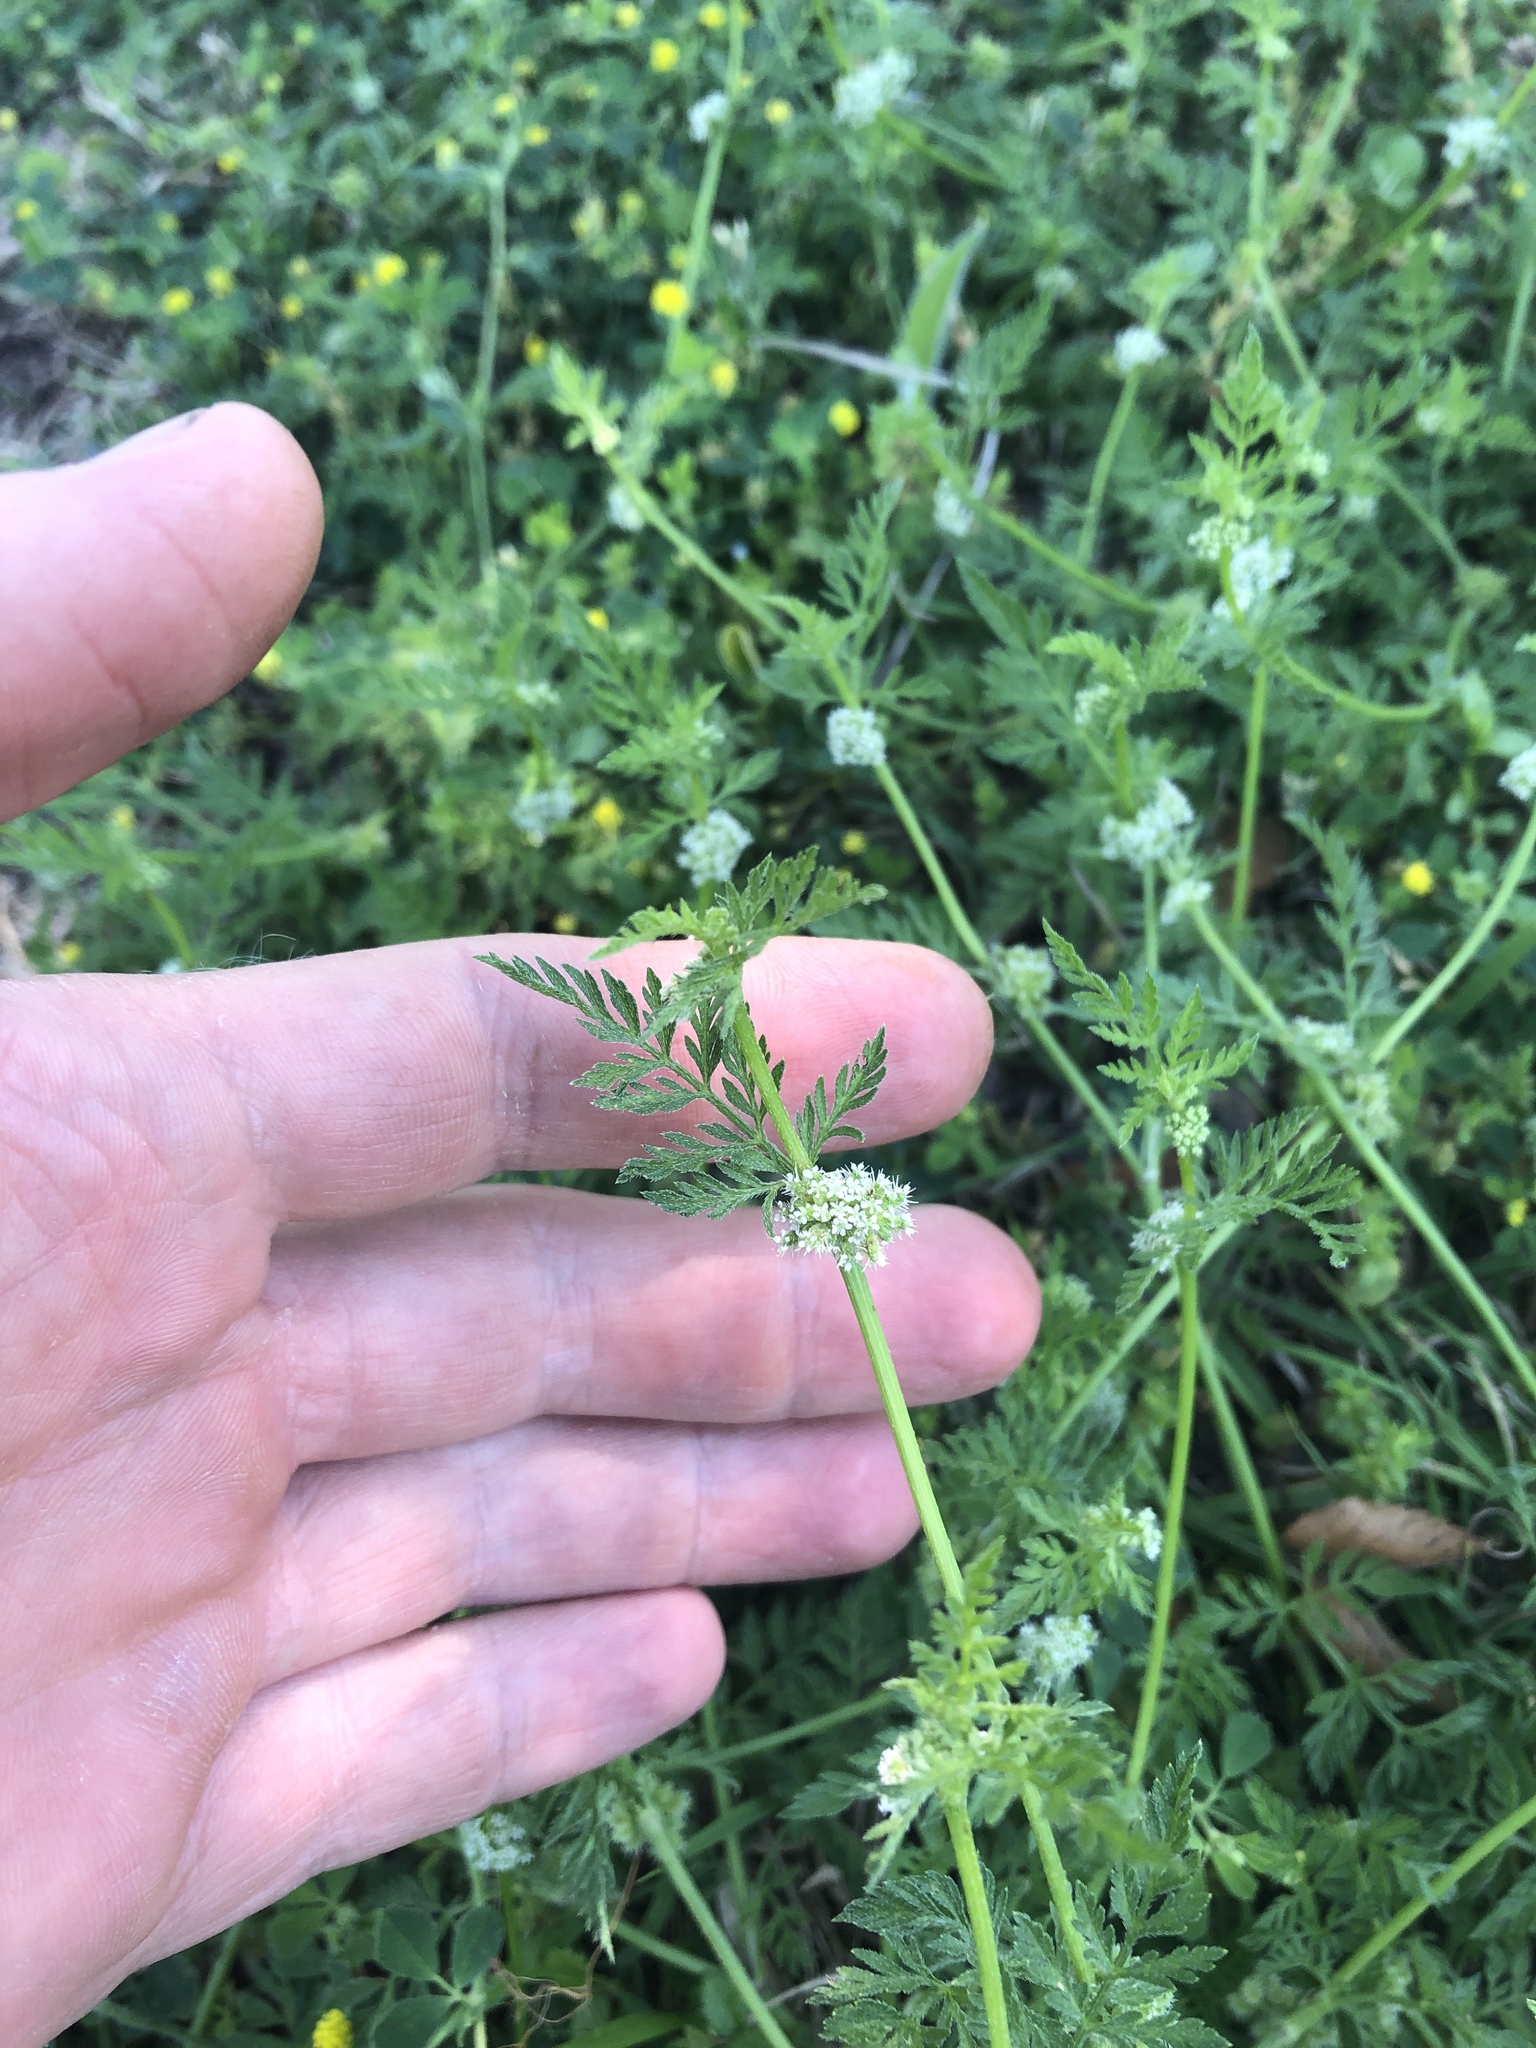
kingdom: Plantae
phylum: Tracheophyta
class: Magnoliopsida
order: Apiales
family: Apiaceae
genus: Torilis
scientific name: Torilis nodosa
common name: Knotted hedge-parsley
